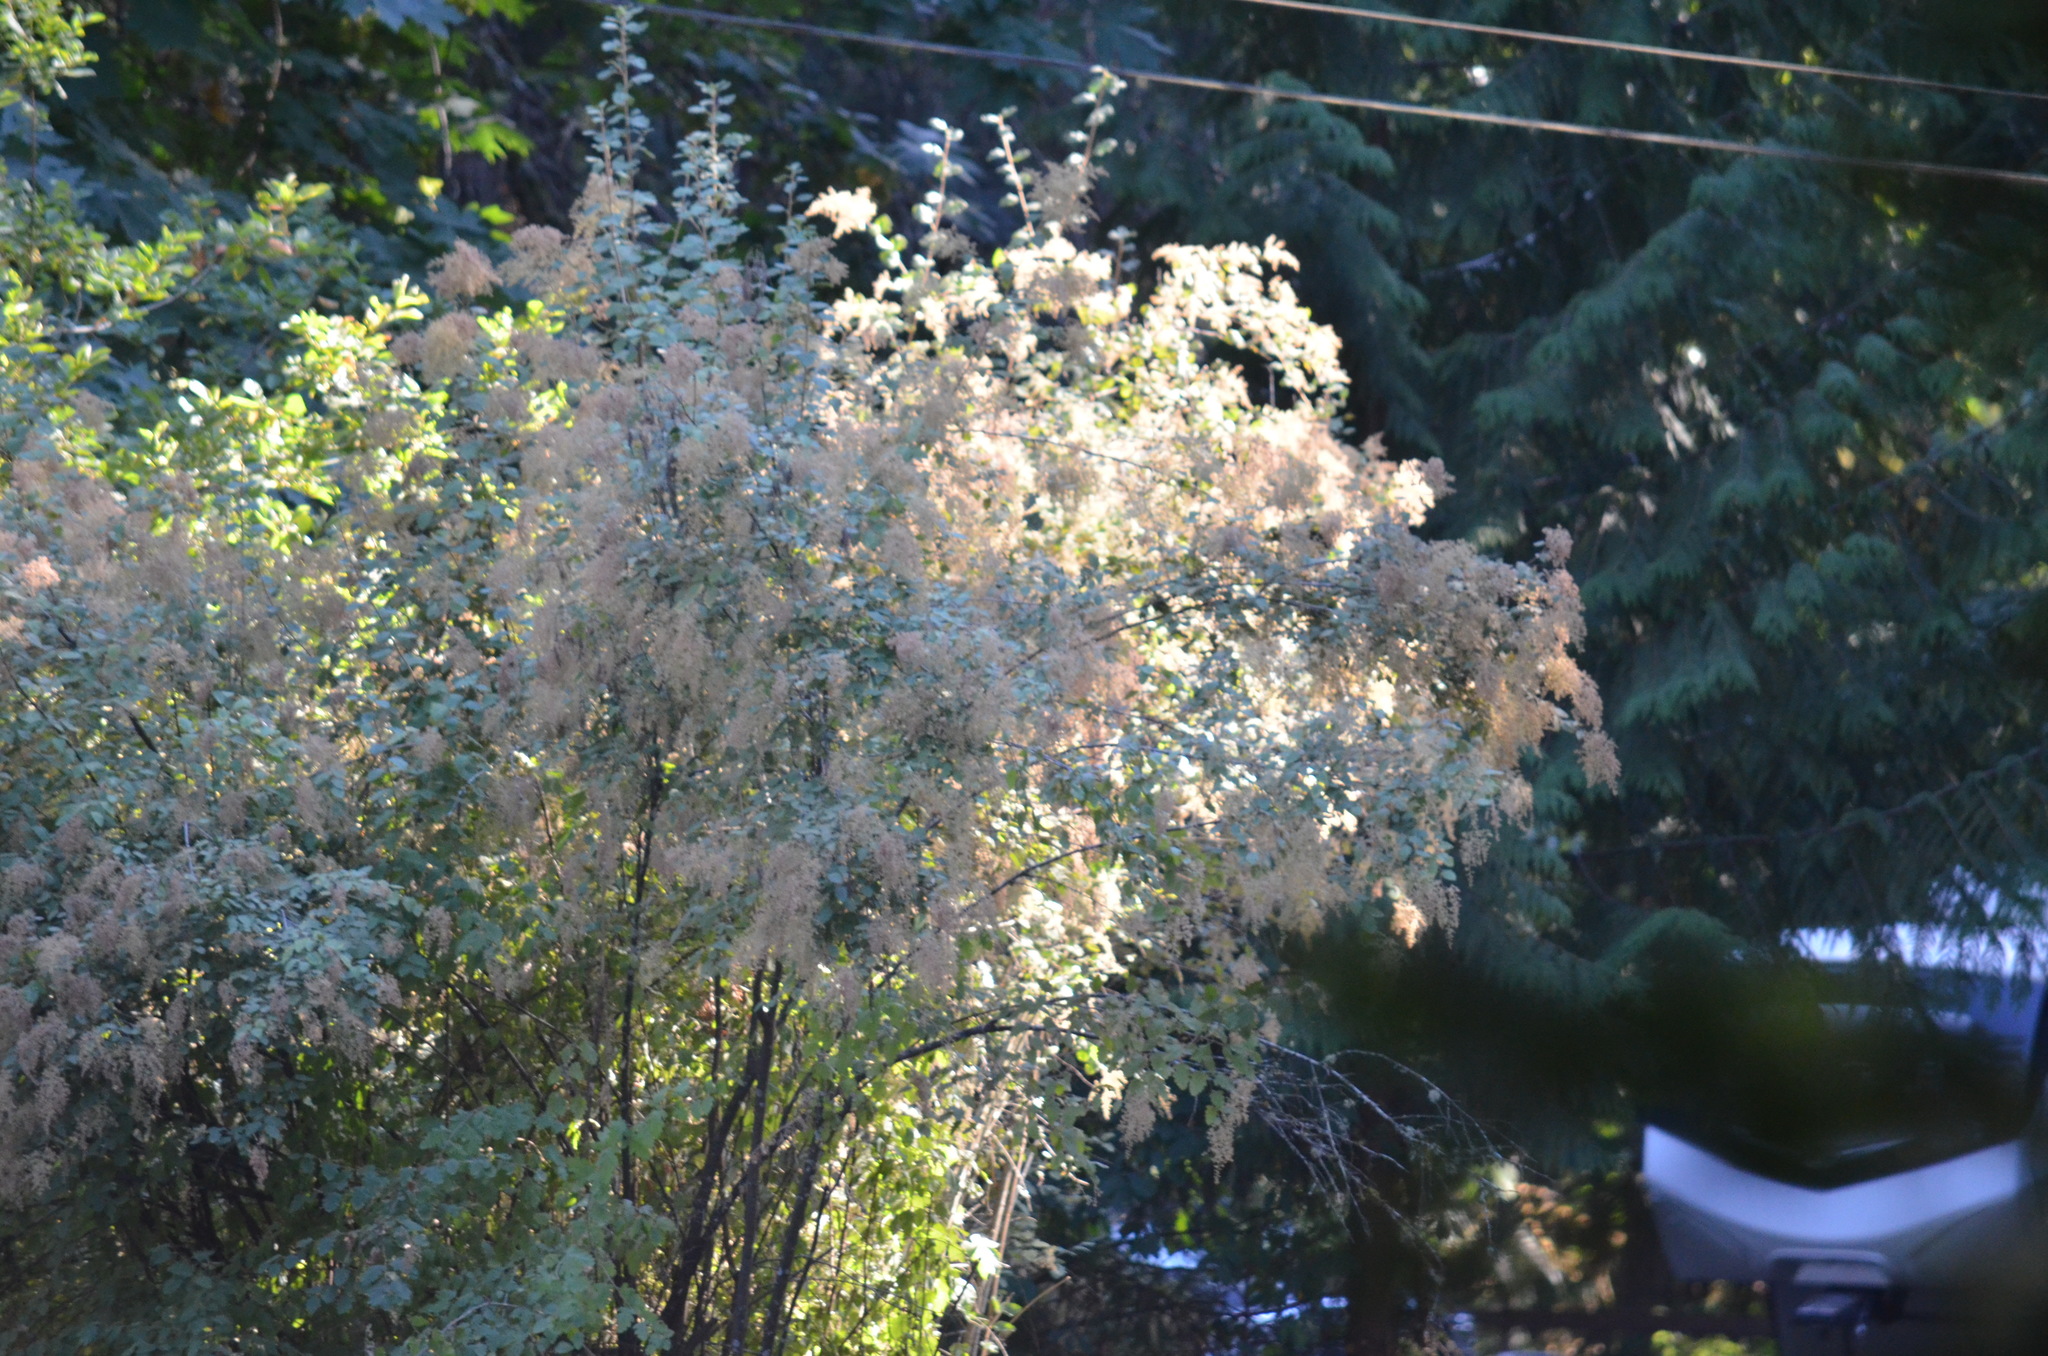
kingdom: Plantae
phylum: Tracheophyta
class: Magnoliopsida
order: Rosales
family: Rosaceae
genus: Holodiscus
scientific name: Holodiscus discolor
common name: Oceanspray
